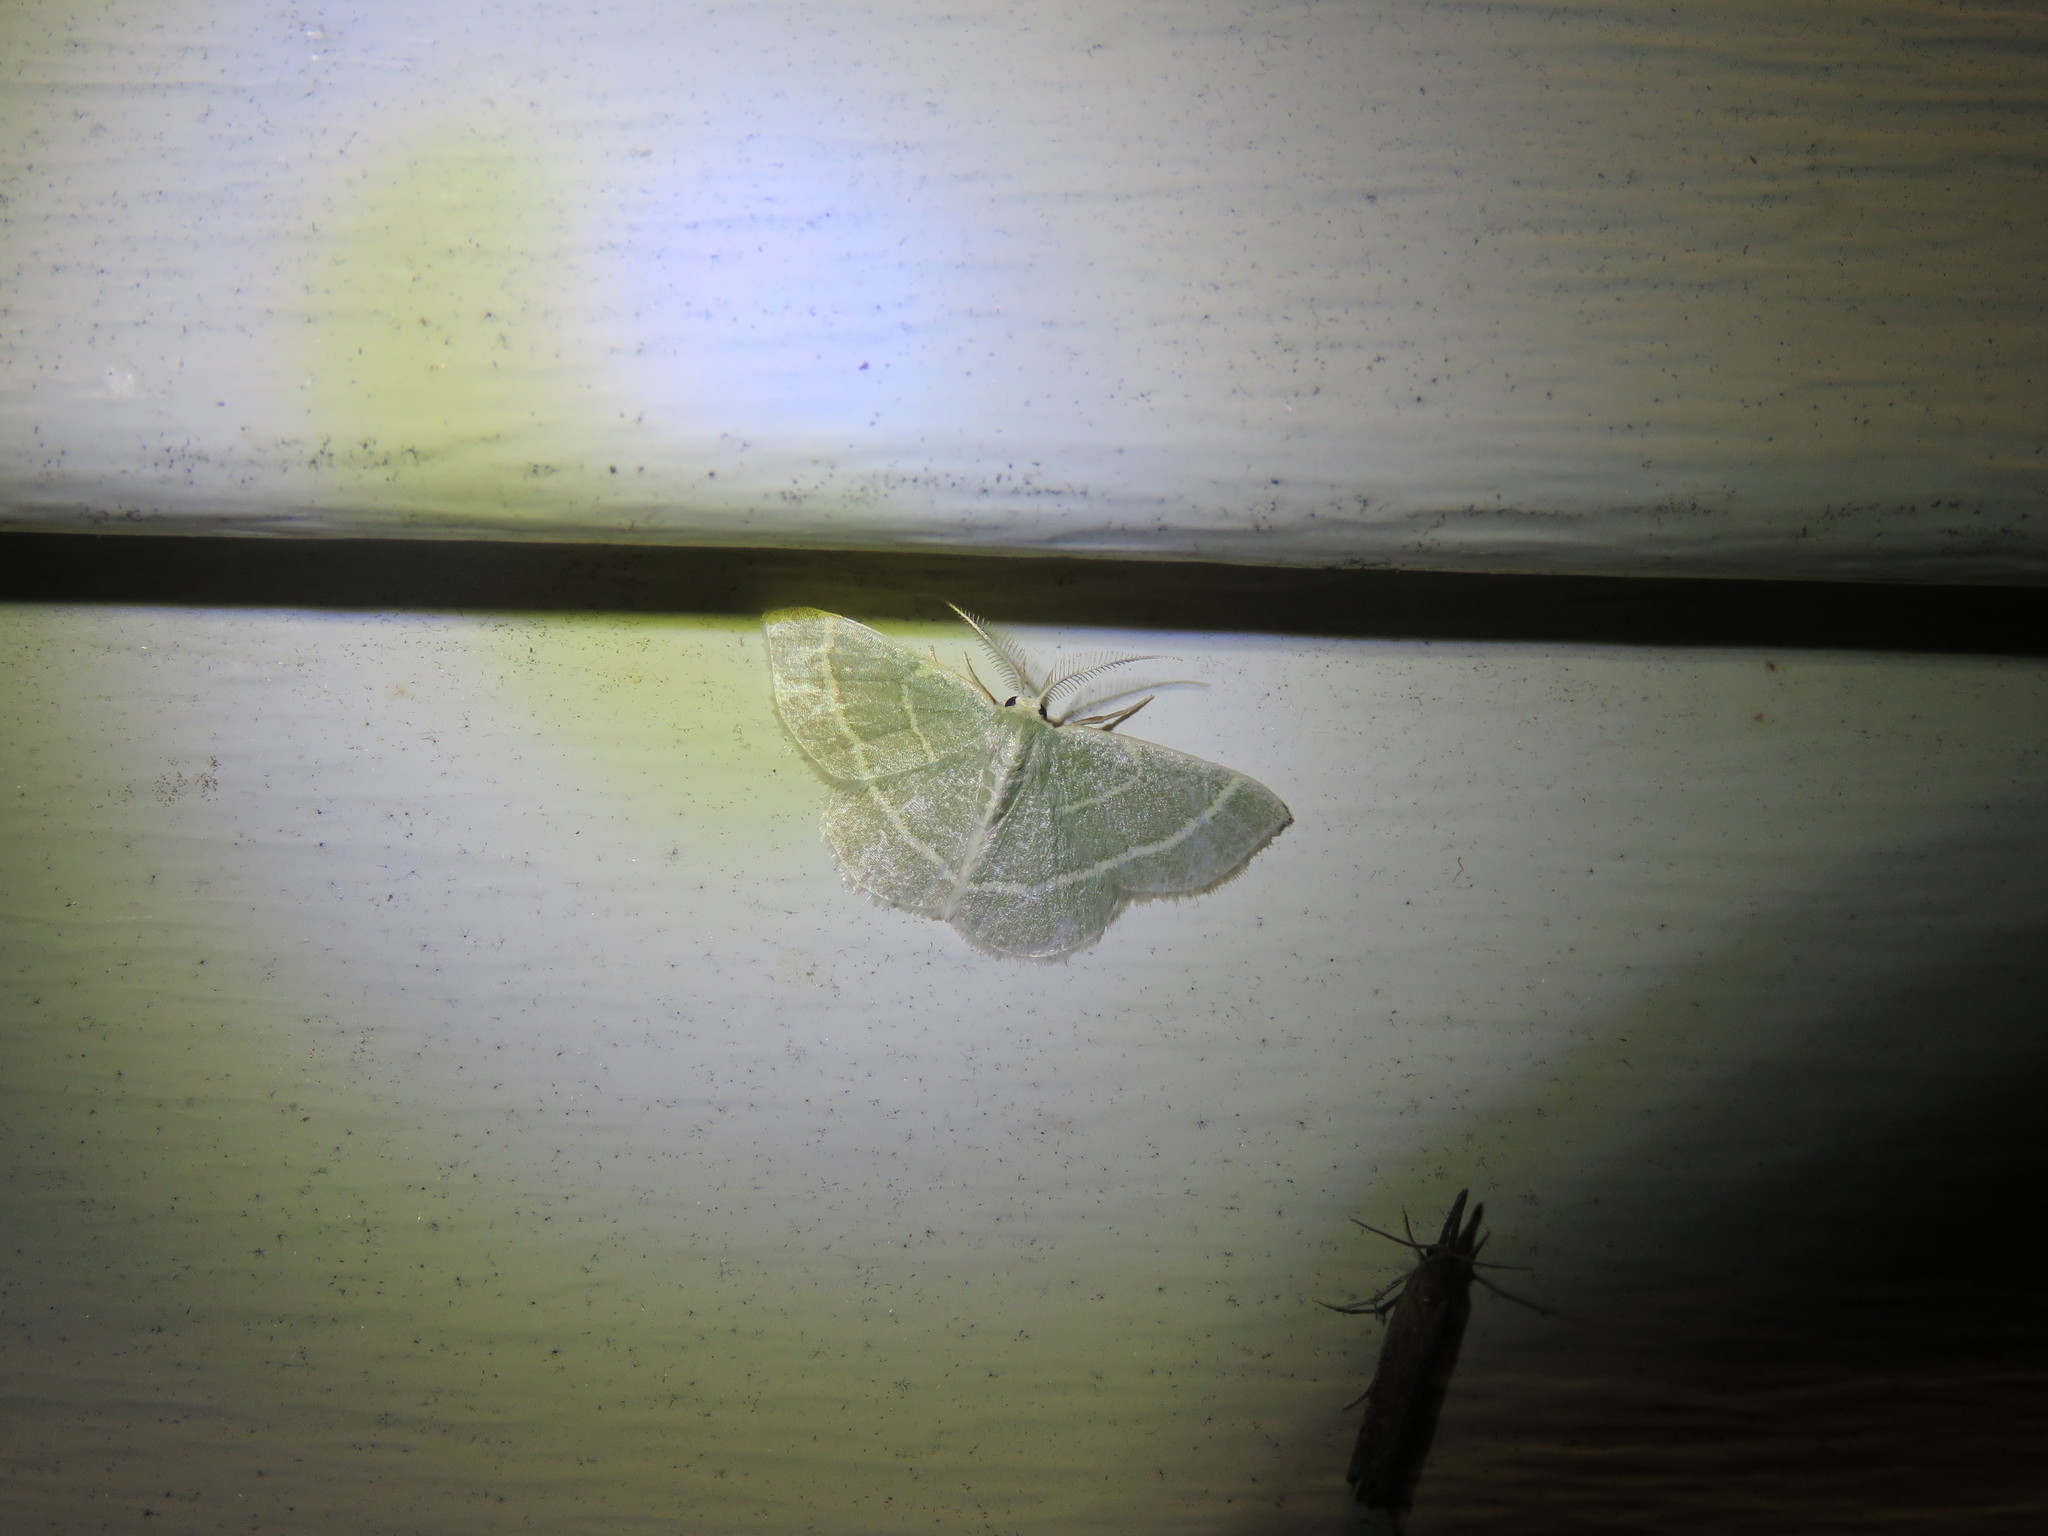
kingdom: Animalia
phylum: Arthropoda
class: Insecta
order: Lepidoptera
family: Geometridae
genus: Chlorochlamys
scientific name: Chlorochlamys chloroleucaria
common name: Blackberry looper
